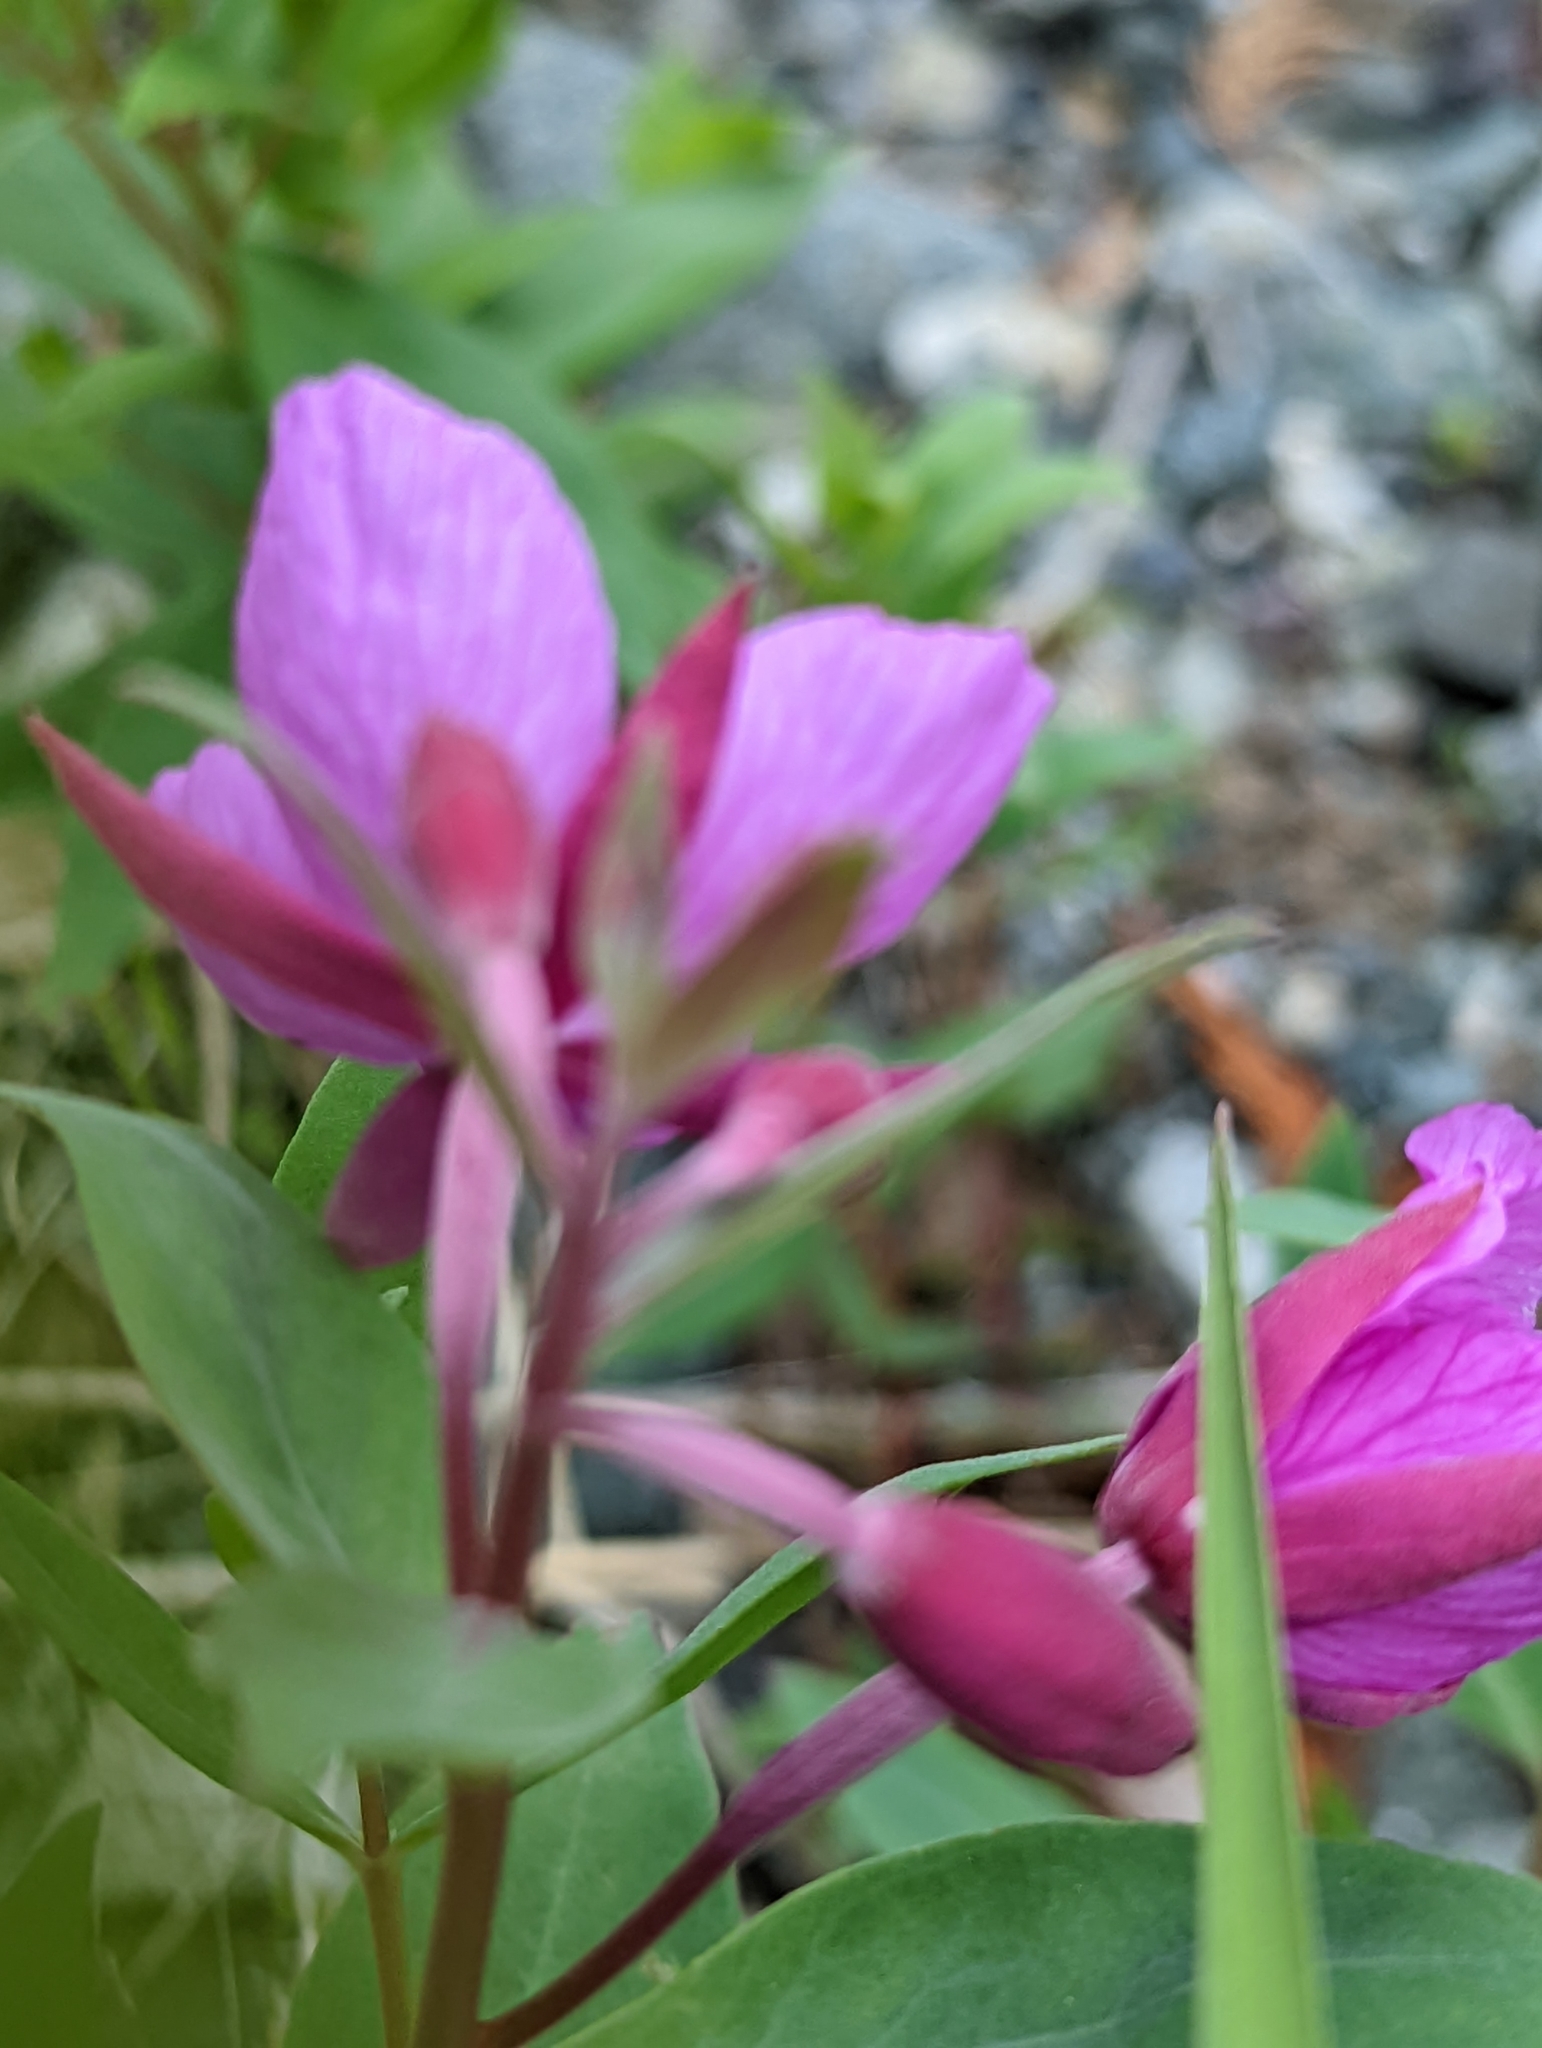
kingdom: Plantae
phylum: Tracheophyta
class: Magnoliopsida
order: Myrtales
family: Onagraceae
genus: Chamaenerion
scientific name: Chamaenerion latifolium
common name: Dwarf fireweed
